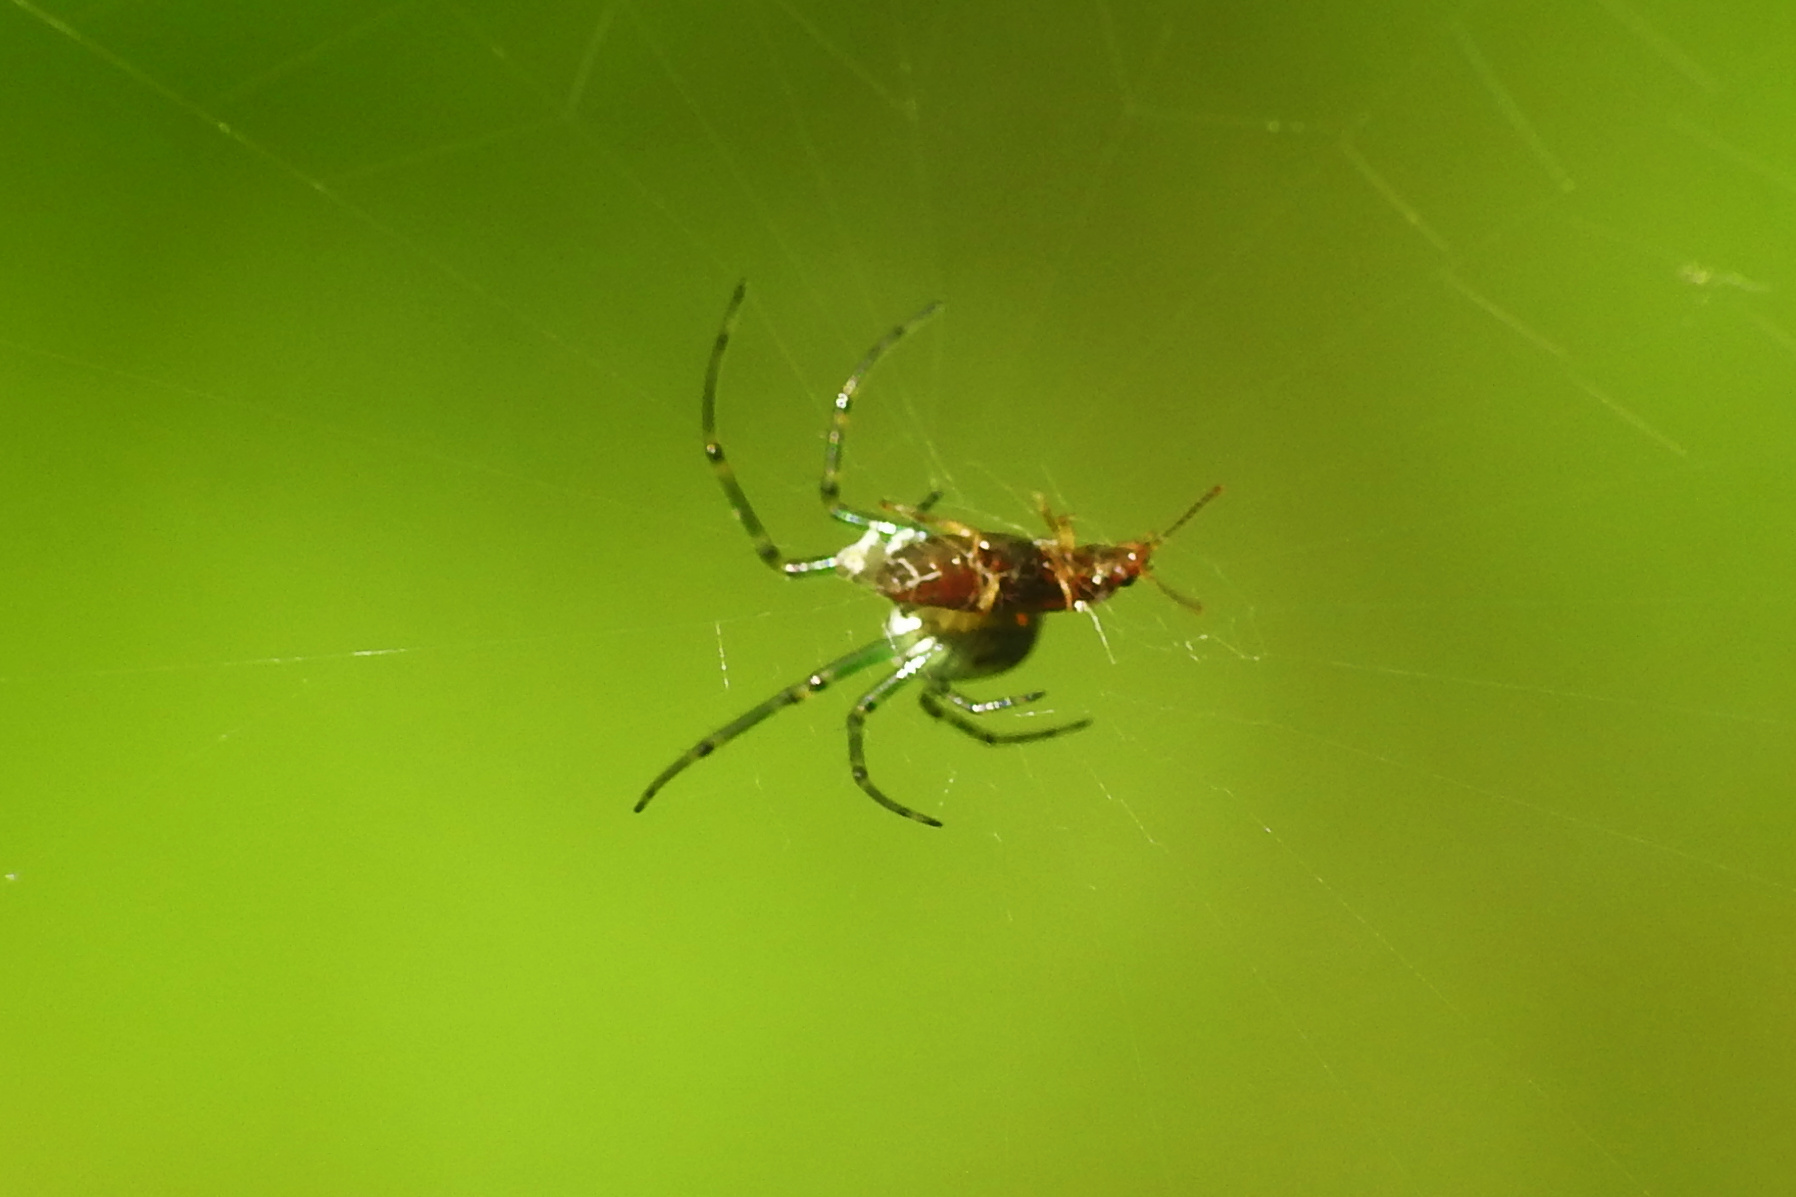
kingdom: Animalia
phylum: Arthropoda
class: Arachnida
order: Araneae
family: Tetragnathidae
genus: Leucauge
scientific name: Leucauge venusta
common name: Longjawed orb weavers
